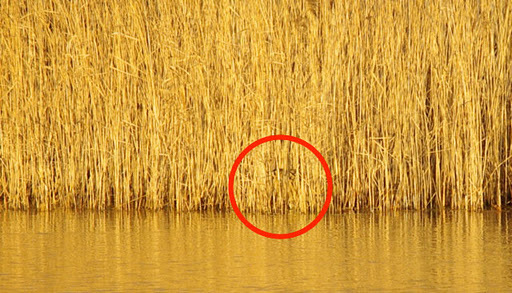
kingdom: Animalia
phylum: Chordata
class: Aves
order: Pelecaniformes
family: Ardeidae
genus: Botaurus
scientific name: Botaurus stellaris
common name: Eurasian bittern
